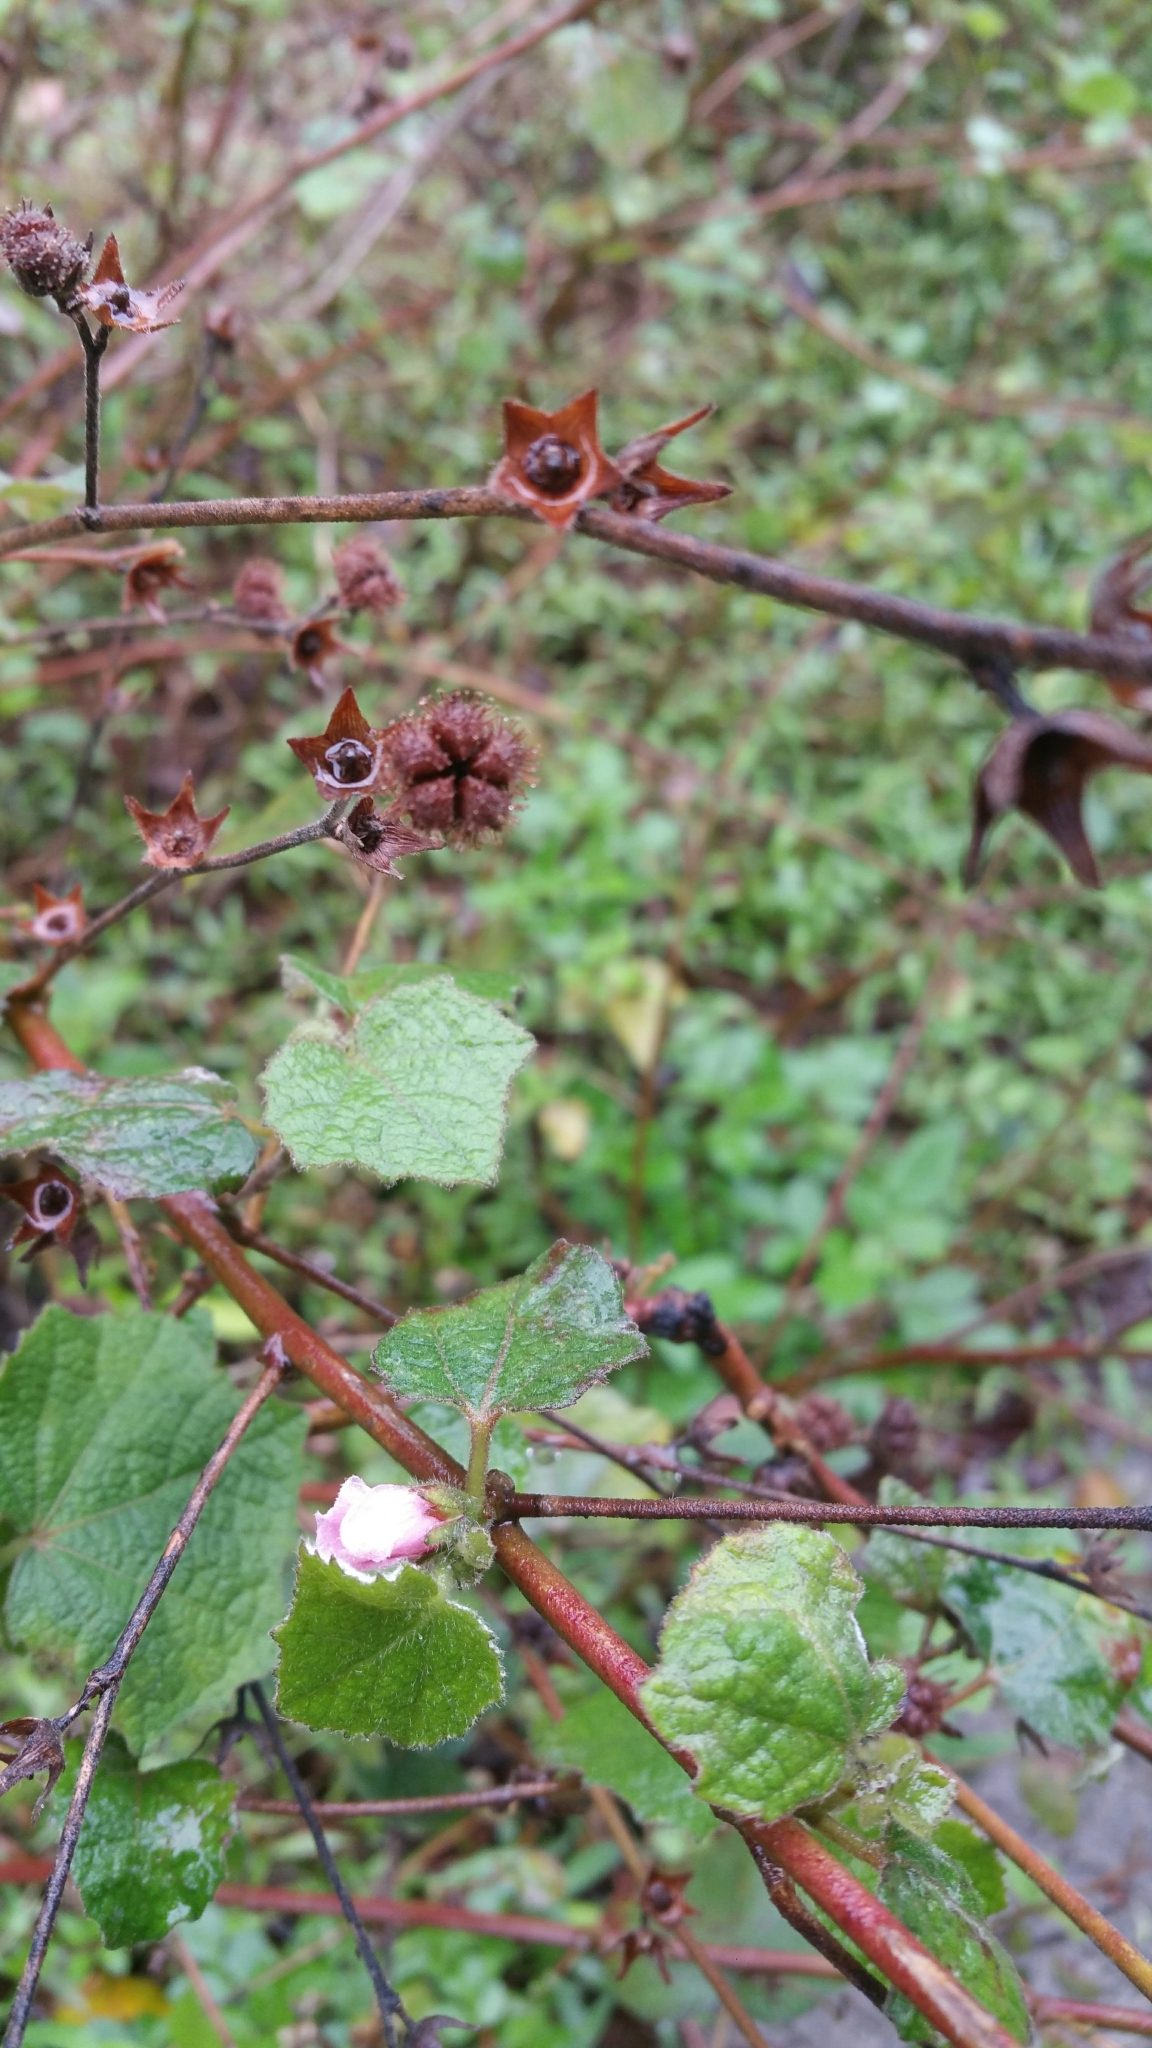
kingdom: Plantae
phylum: Tracheophyta
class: Magnoliopsida
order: Malvales
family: Malvaceae
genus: Urena
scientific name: Urena lobata
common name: Caesarweed
